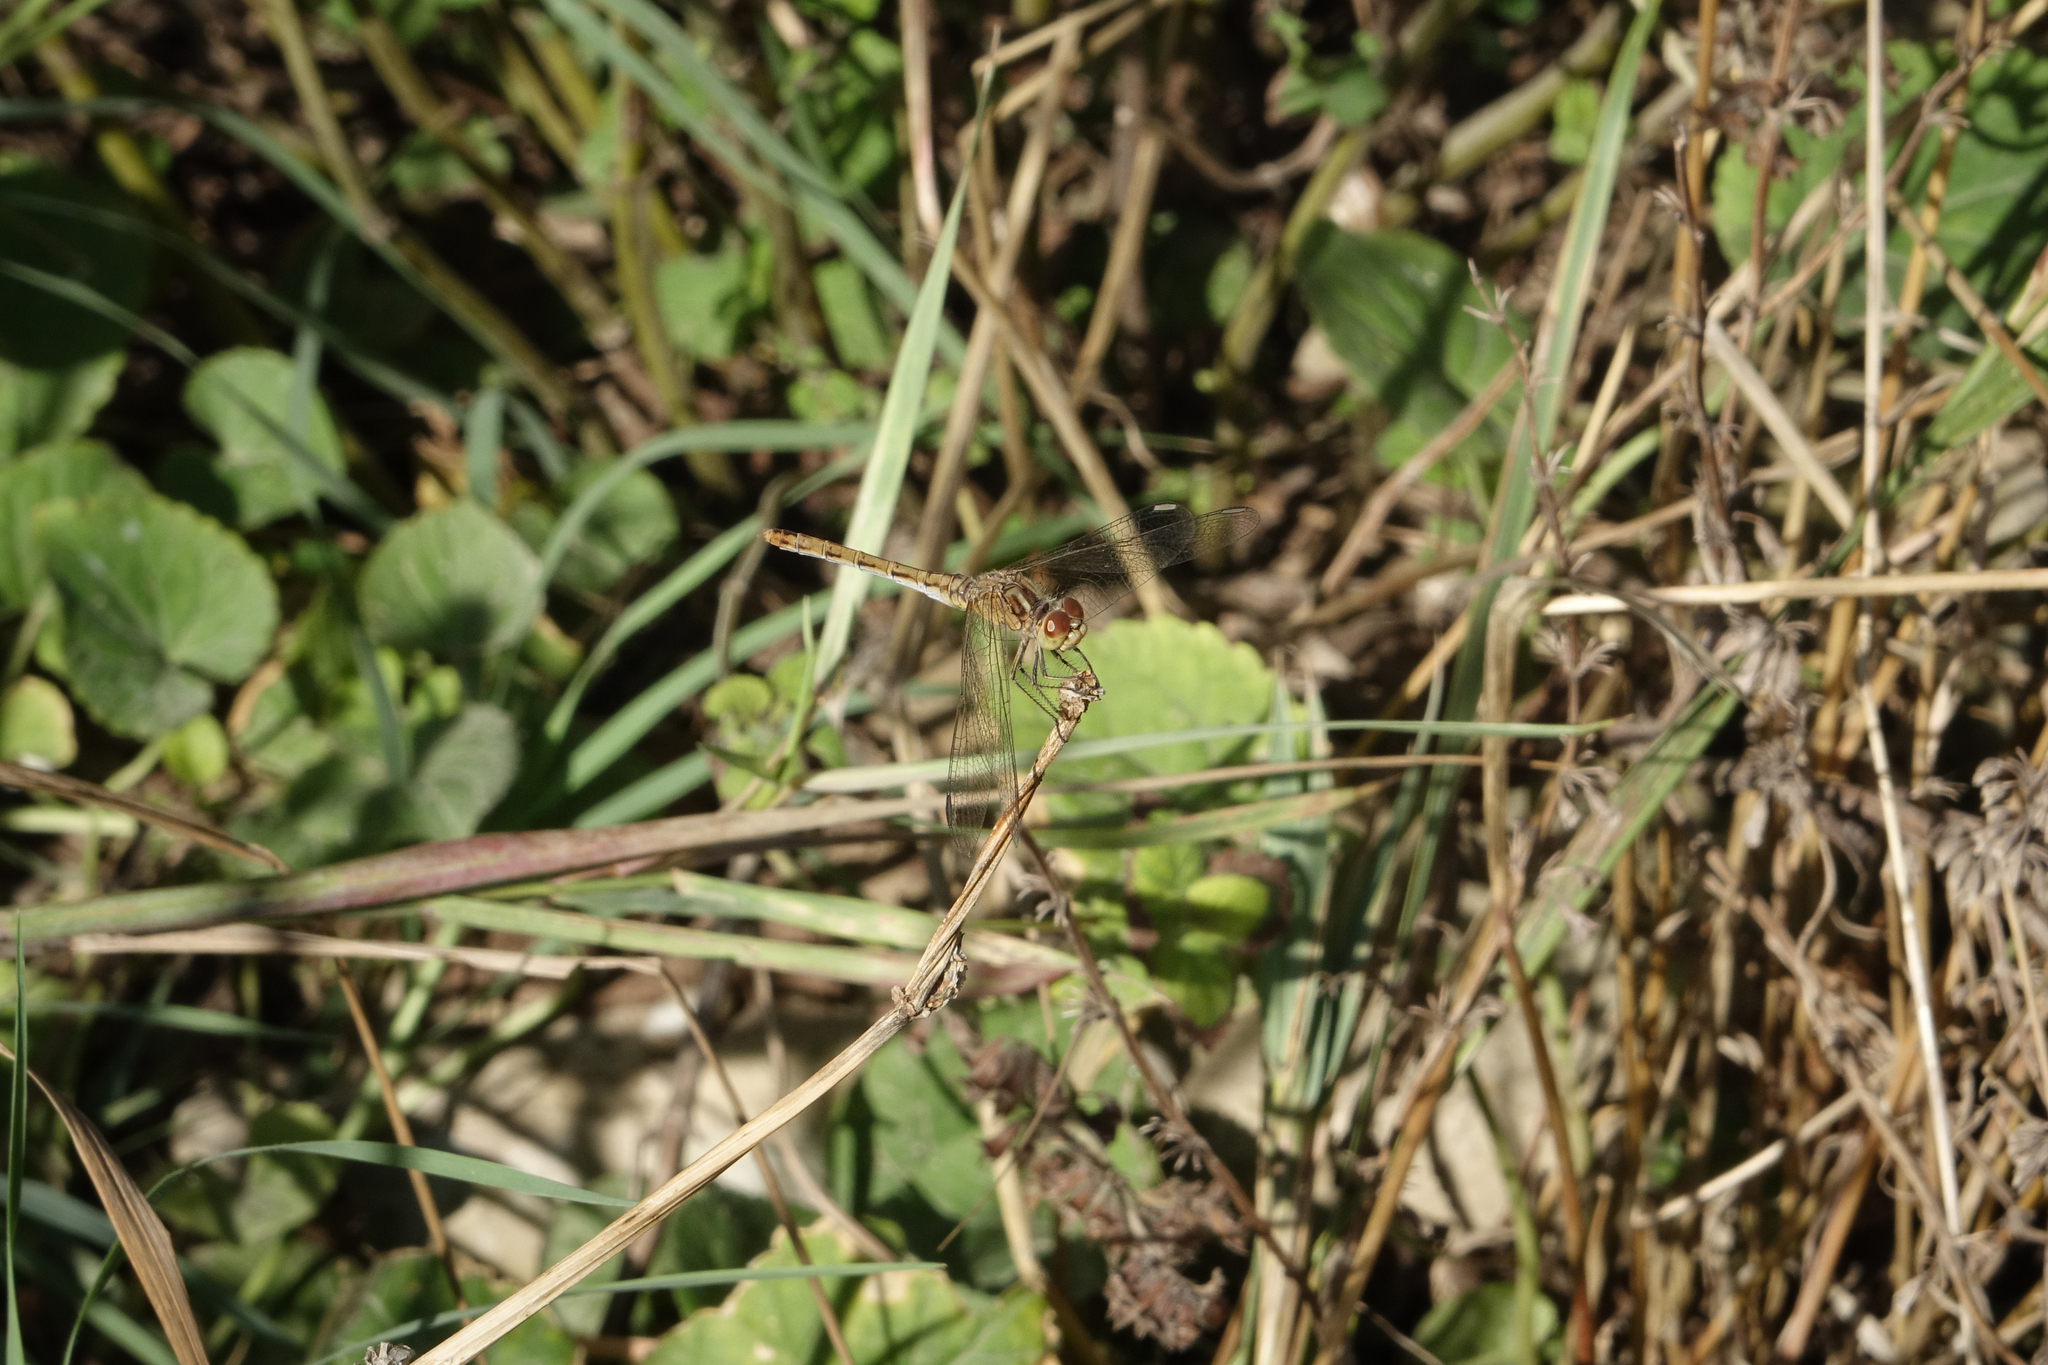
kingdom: Animalia
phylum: Arthropoda
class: Insecta
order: Odonata
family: Libellulidae
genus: Sympetrum
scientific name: Sympetrum meridionale
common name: Southern darter
